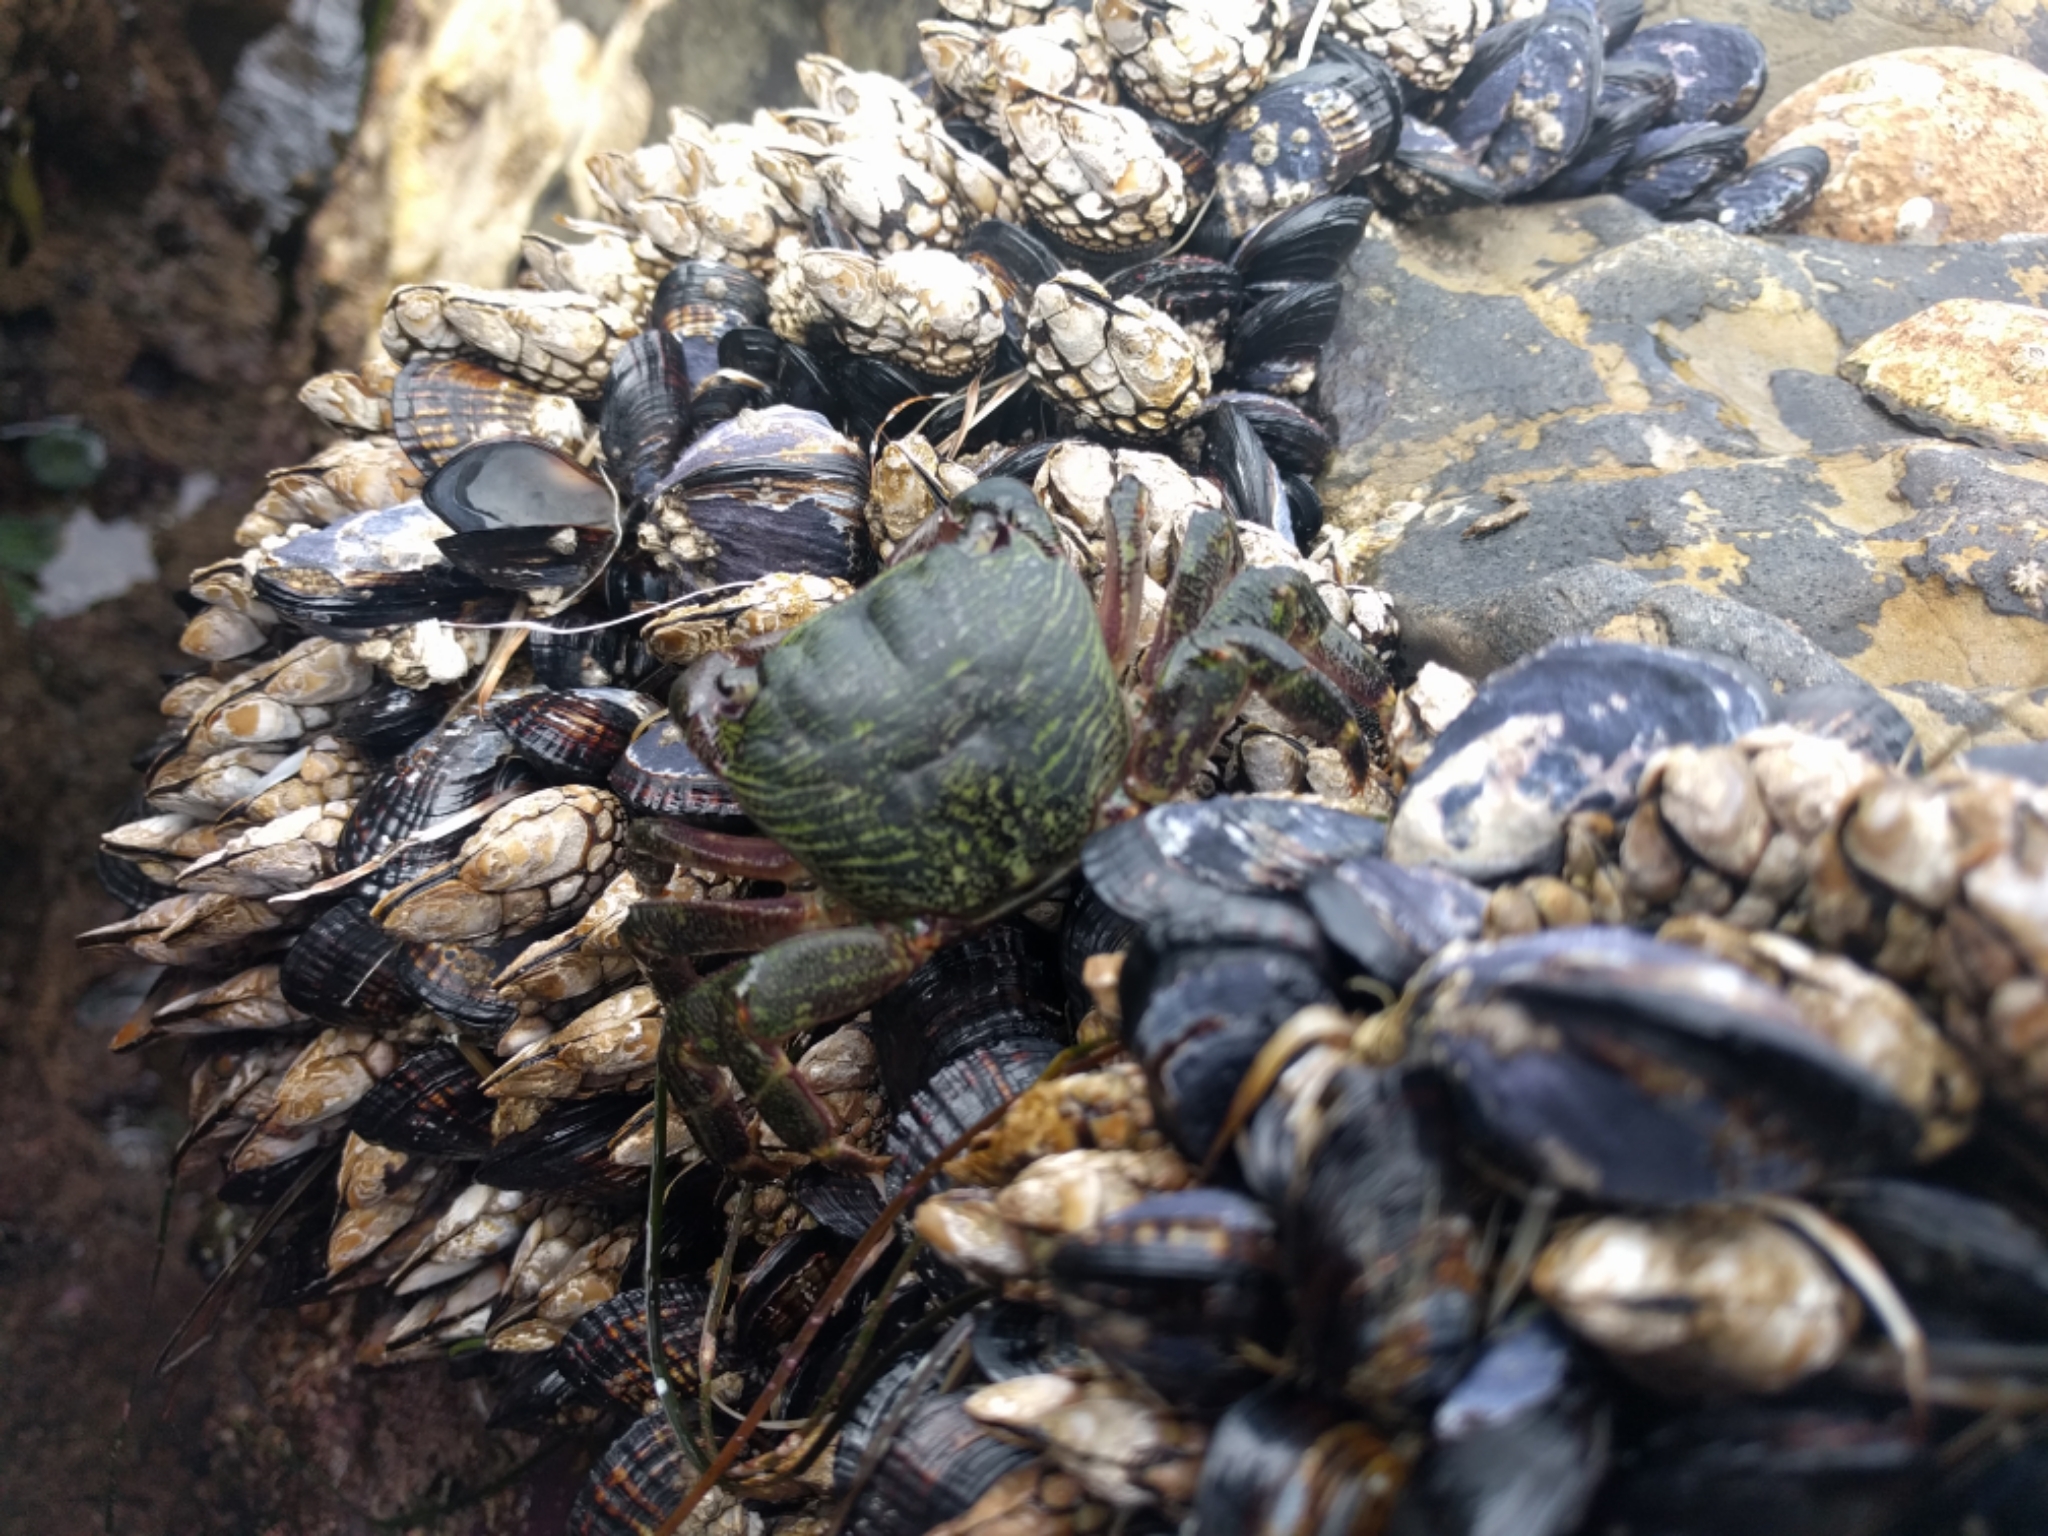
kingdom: Animalia
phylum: Arthropoda
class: Malacostraca
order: Decapoda
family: Grapsidae
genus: Pachygrapsus
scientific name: Pachygrapsus crassipes
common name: Striped shore crab
